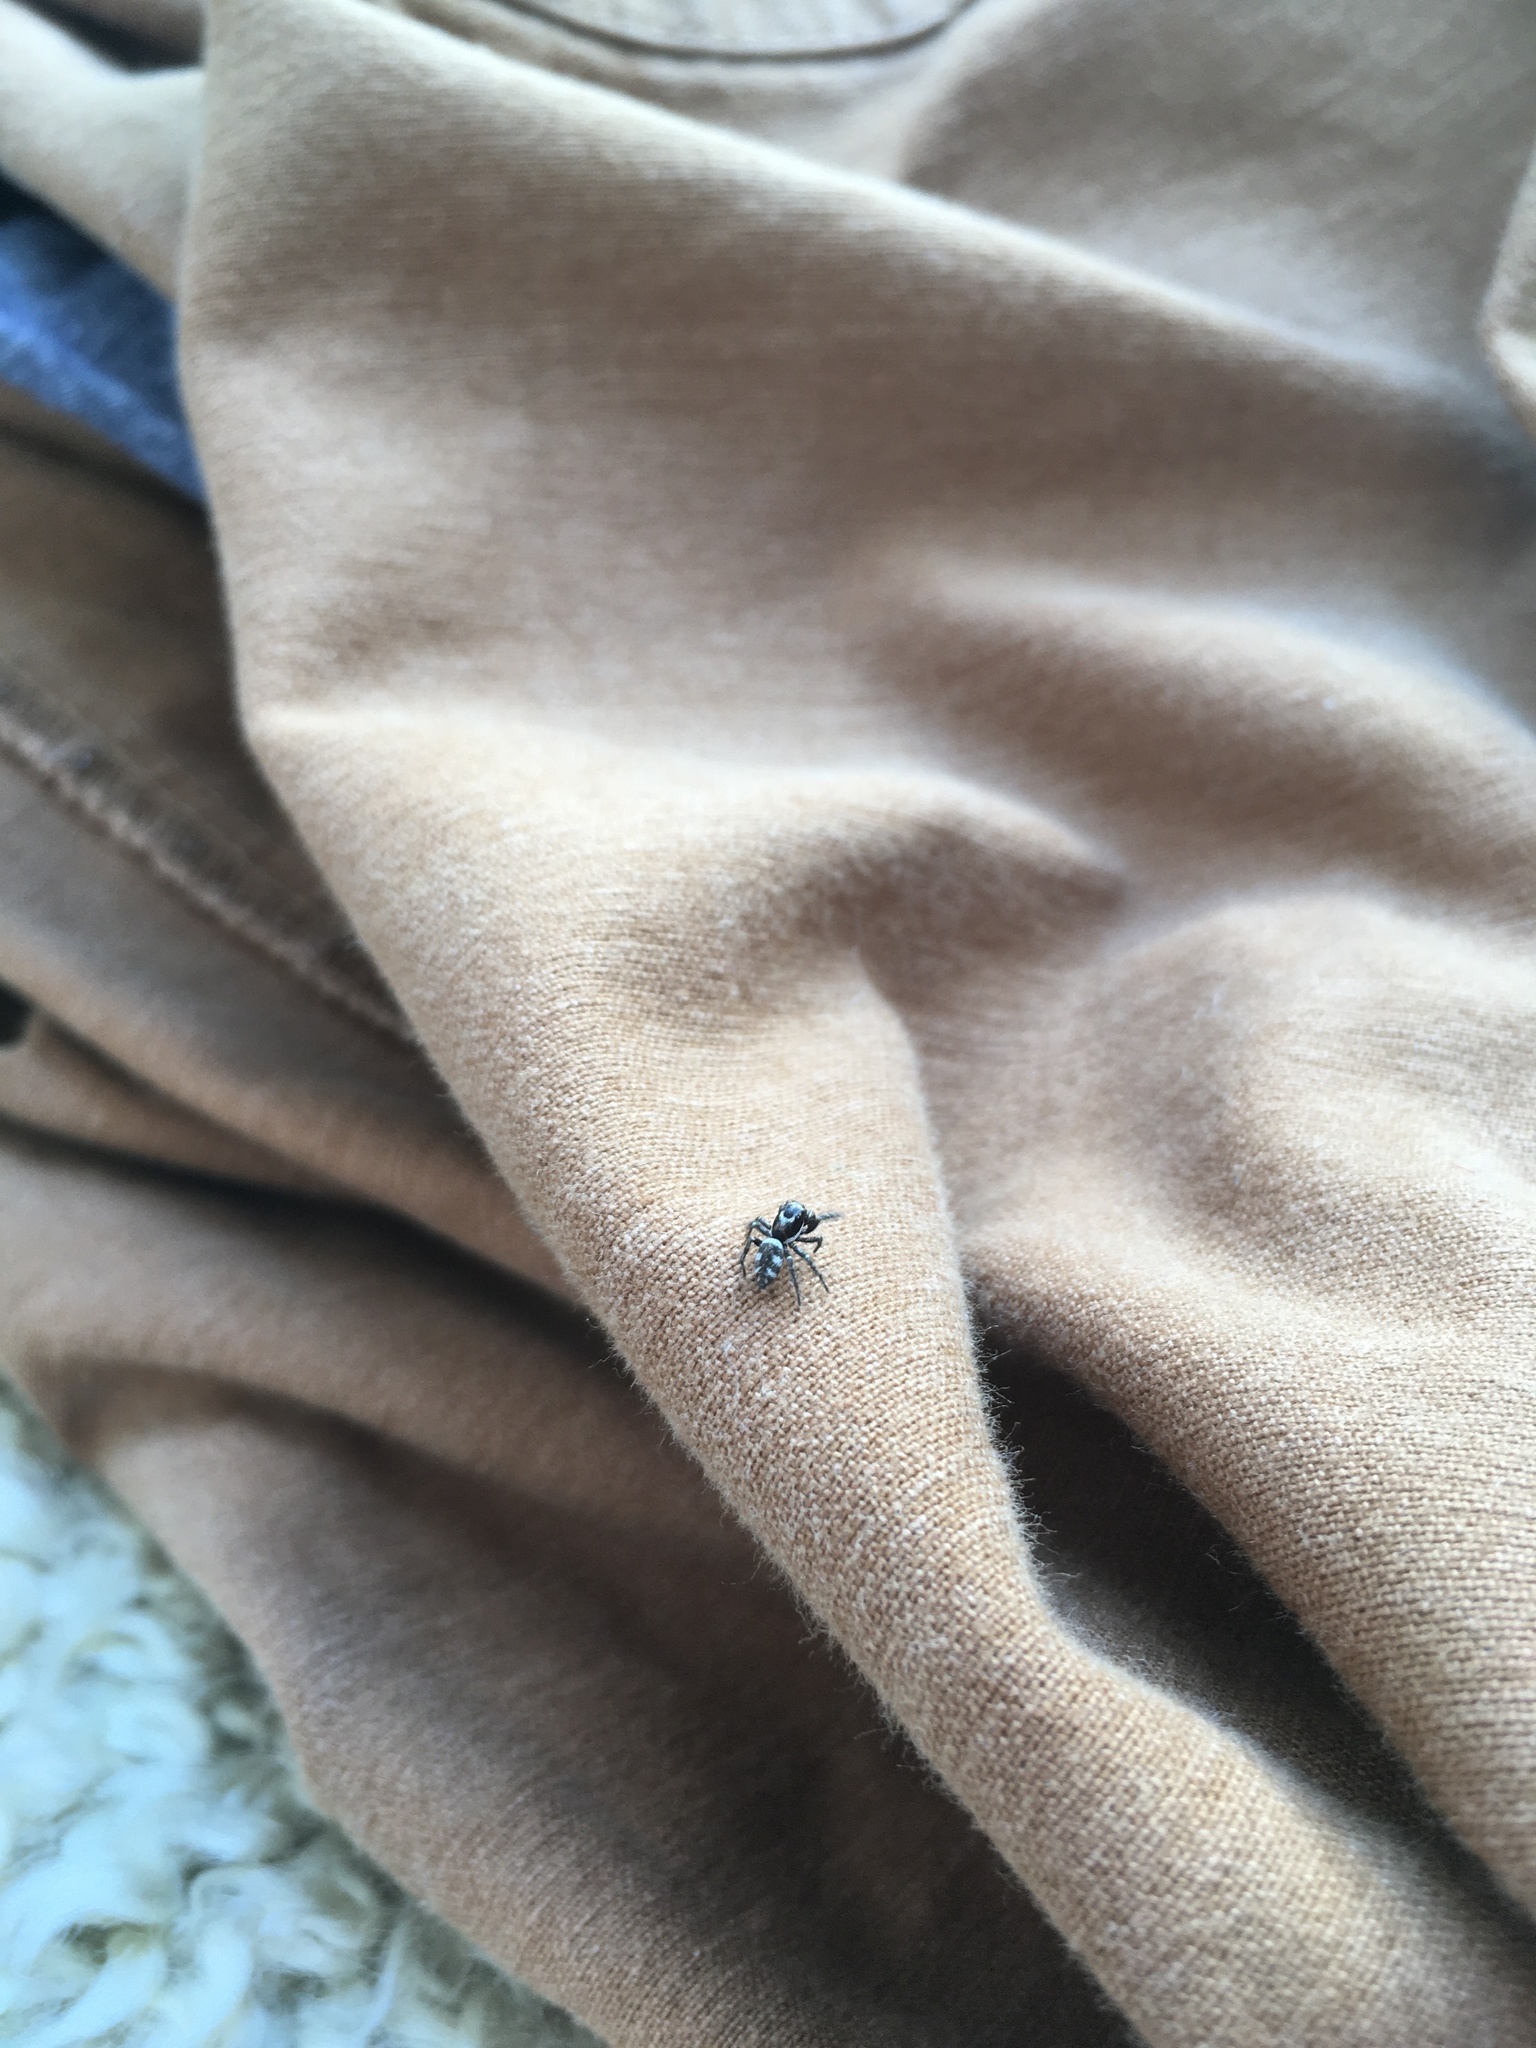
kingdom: Animalia
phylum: Arthropoda
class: Arachnida
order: Araneae
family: Salticidae
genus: Salticus
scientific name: Salticus scenicus
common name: Zebra jumper
